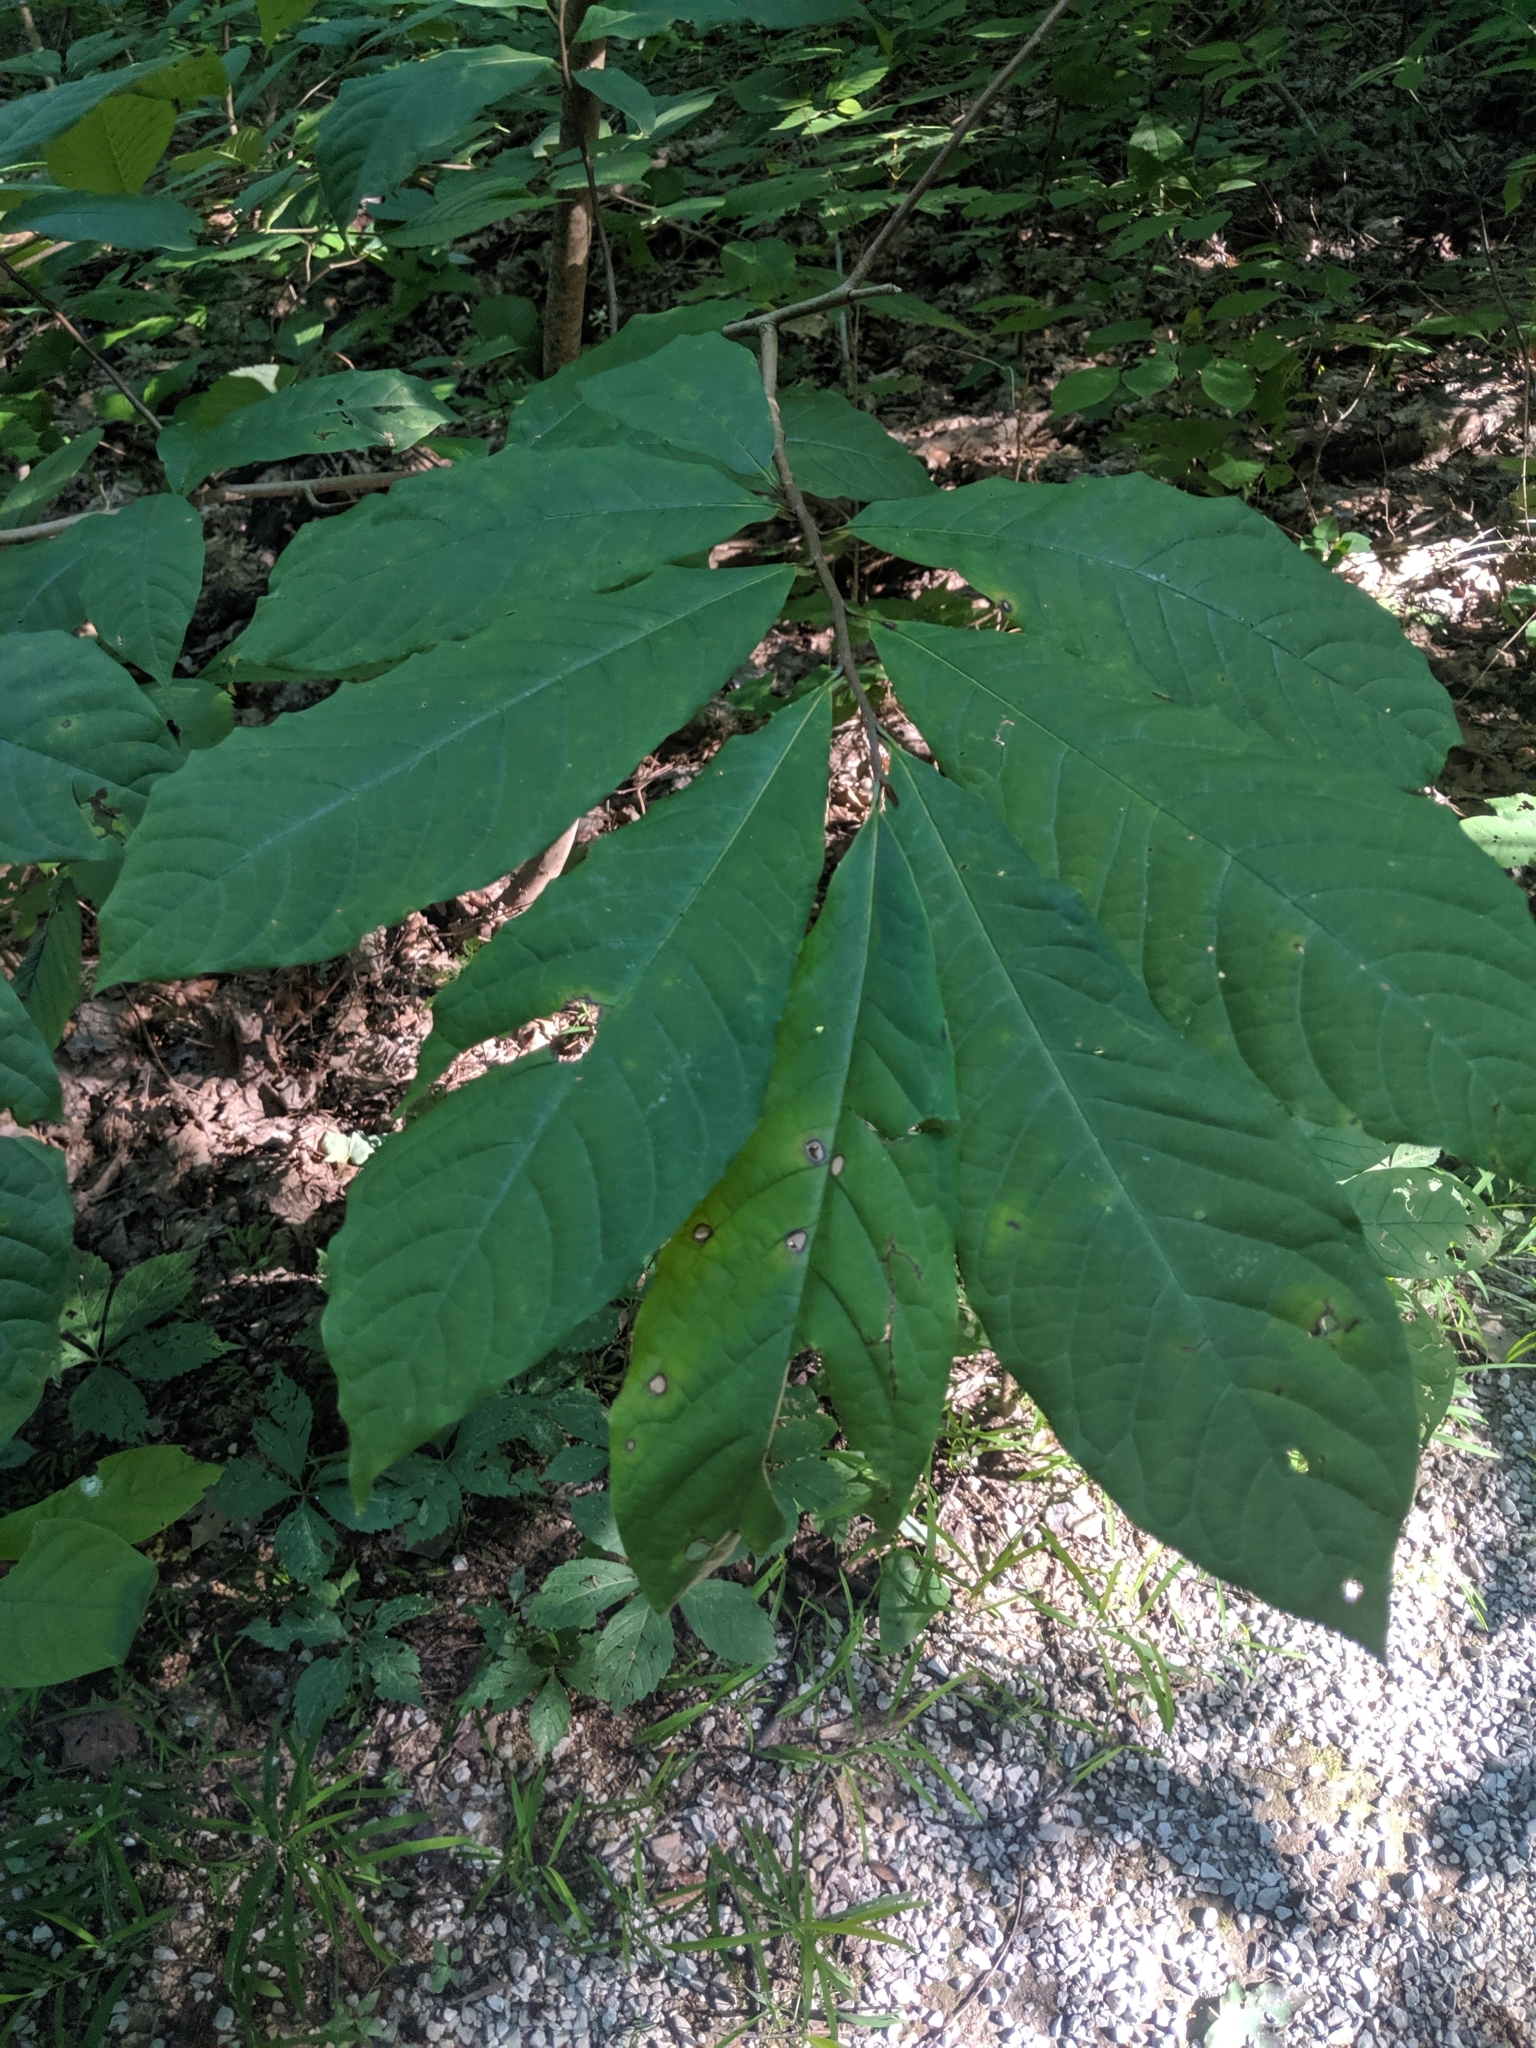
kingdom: Plantae
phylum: Tracheophyta
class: Magnoliopsida
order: Magnoliales
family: Annonaceae
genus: Asimina
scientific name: Asimina triloba
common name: Dog-banana
